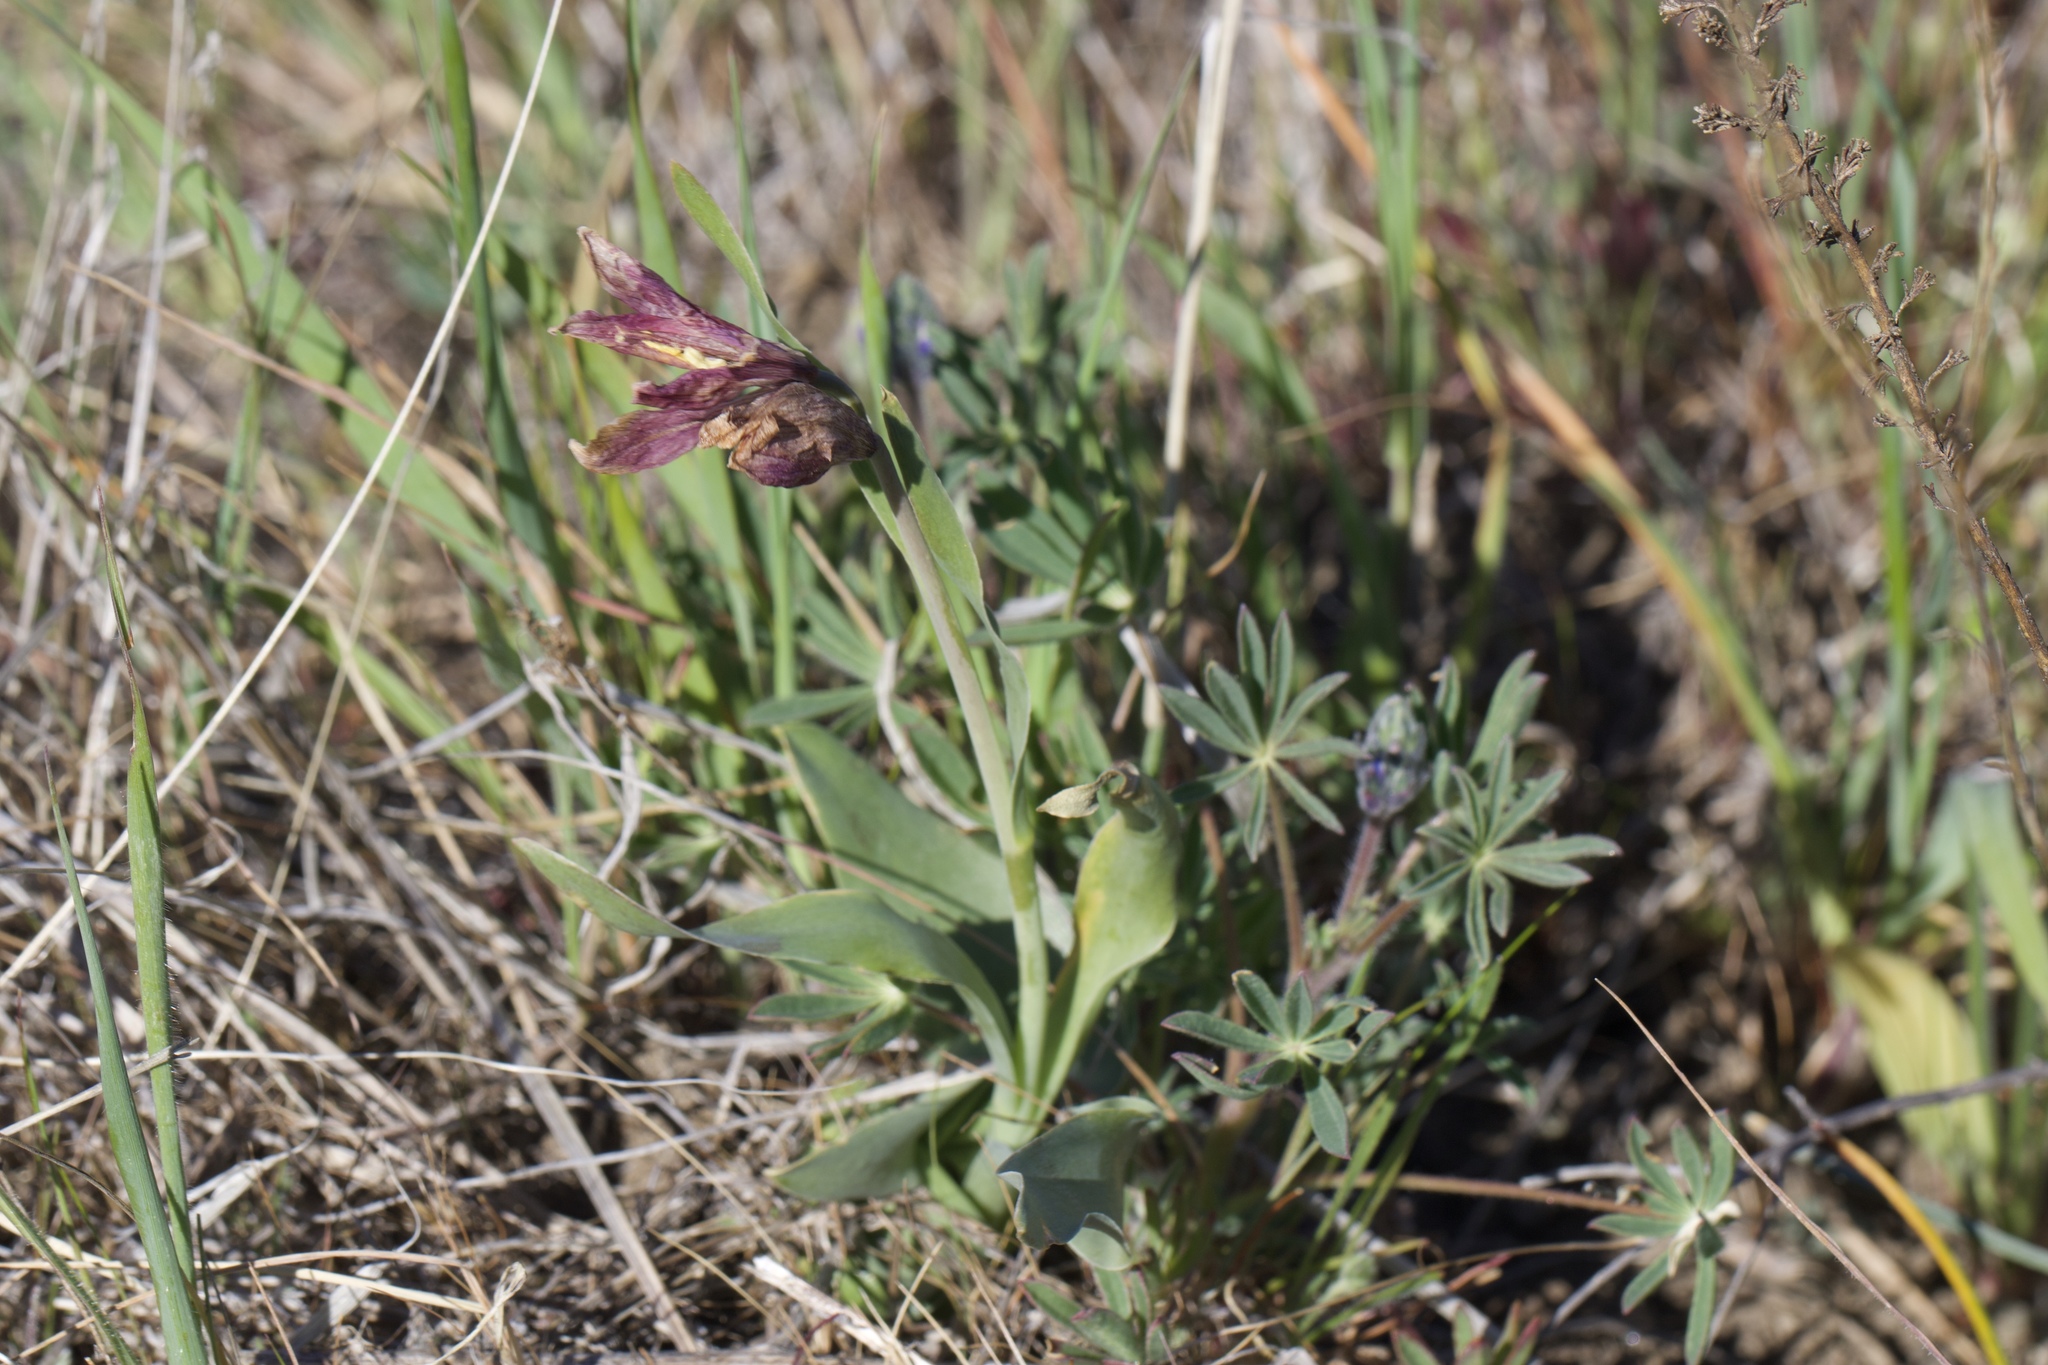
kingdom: Plantae
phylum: Tracheophyta
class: Liliopsida
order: Liliales
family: Liliaceae
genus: Fritillaria
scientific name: Fritillaria pluriflora
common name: Adobe-lily
